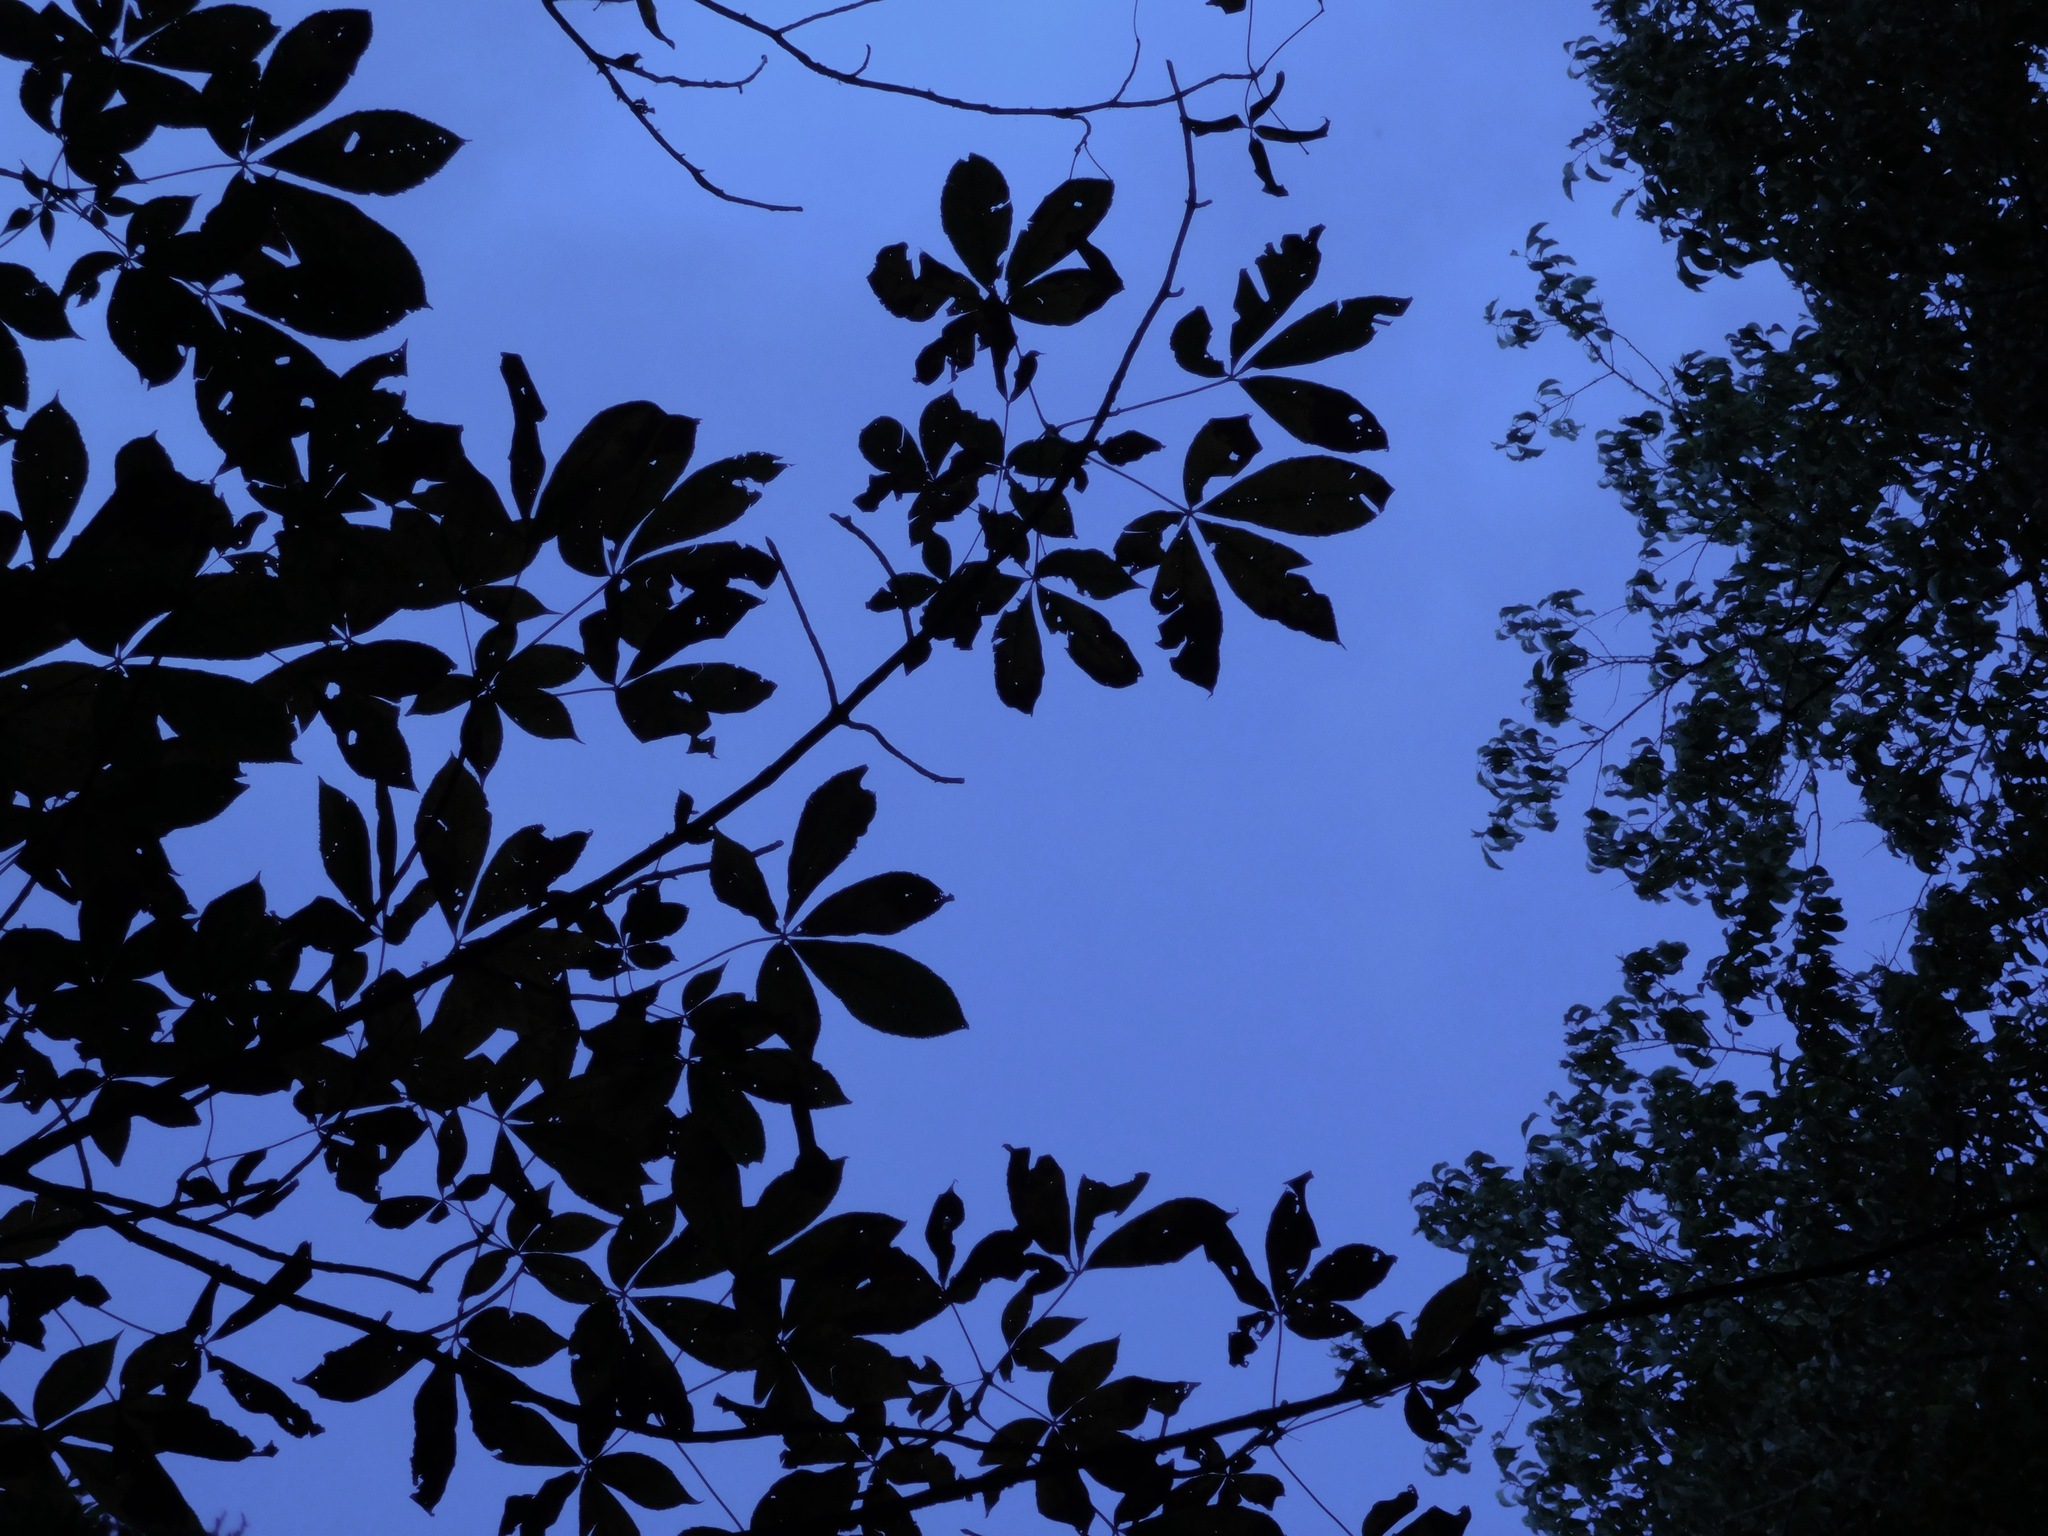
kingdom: Plantae
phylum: Tracheophyta
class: Magnoliopsida
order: Sapindales
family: Sapindaceae
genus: Aesculus
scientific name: Aesculus flava
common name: Yellow buckeye
